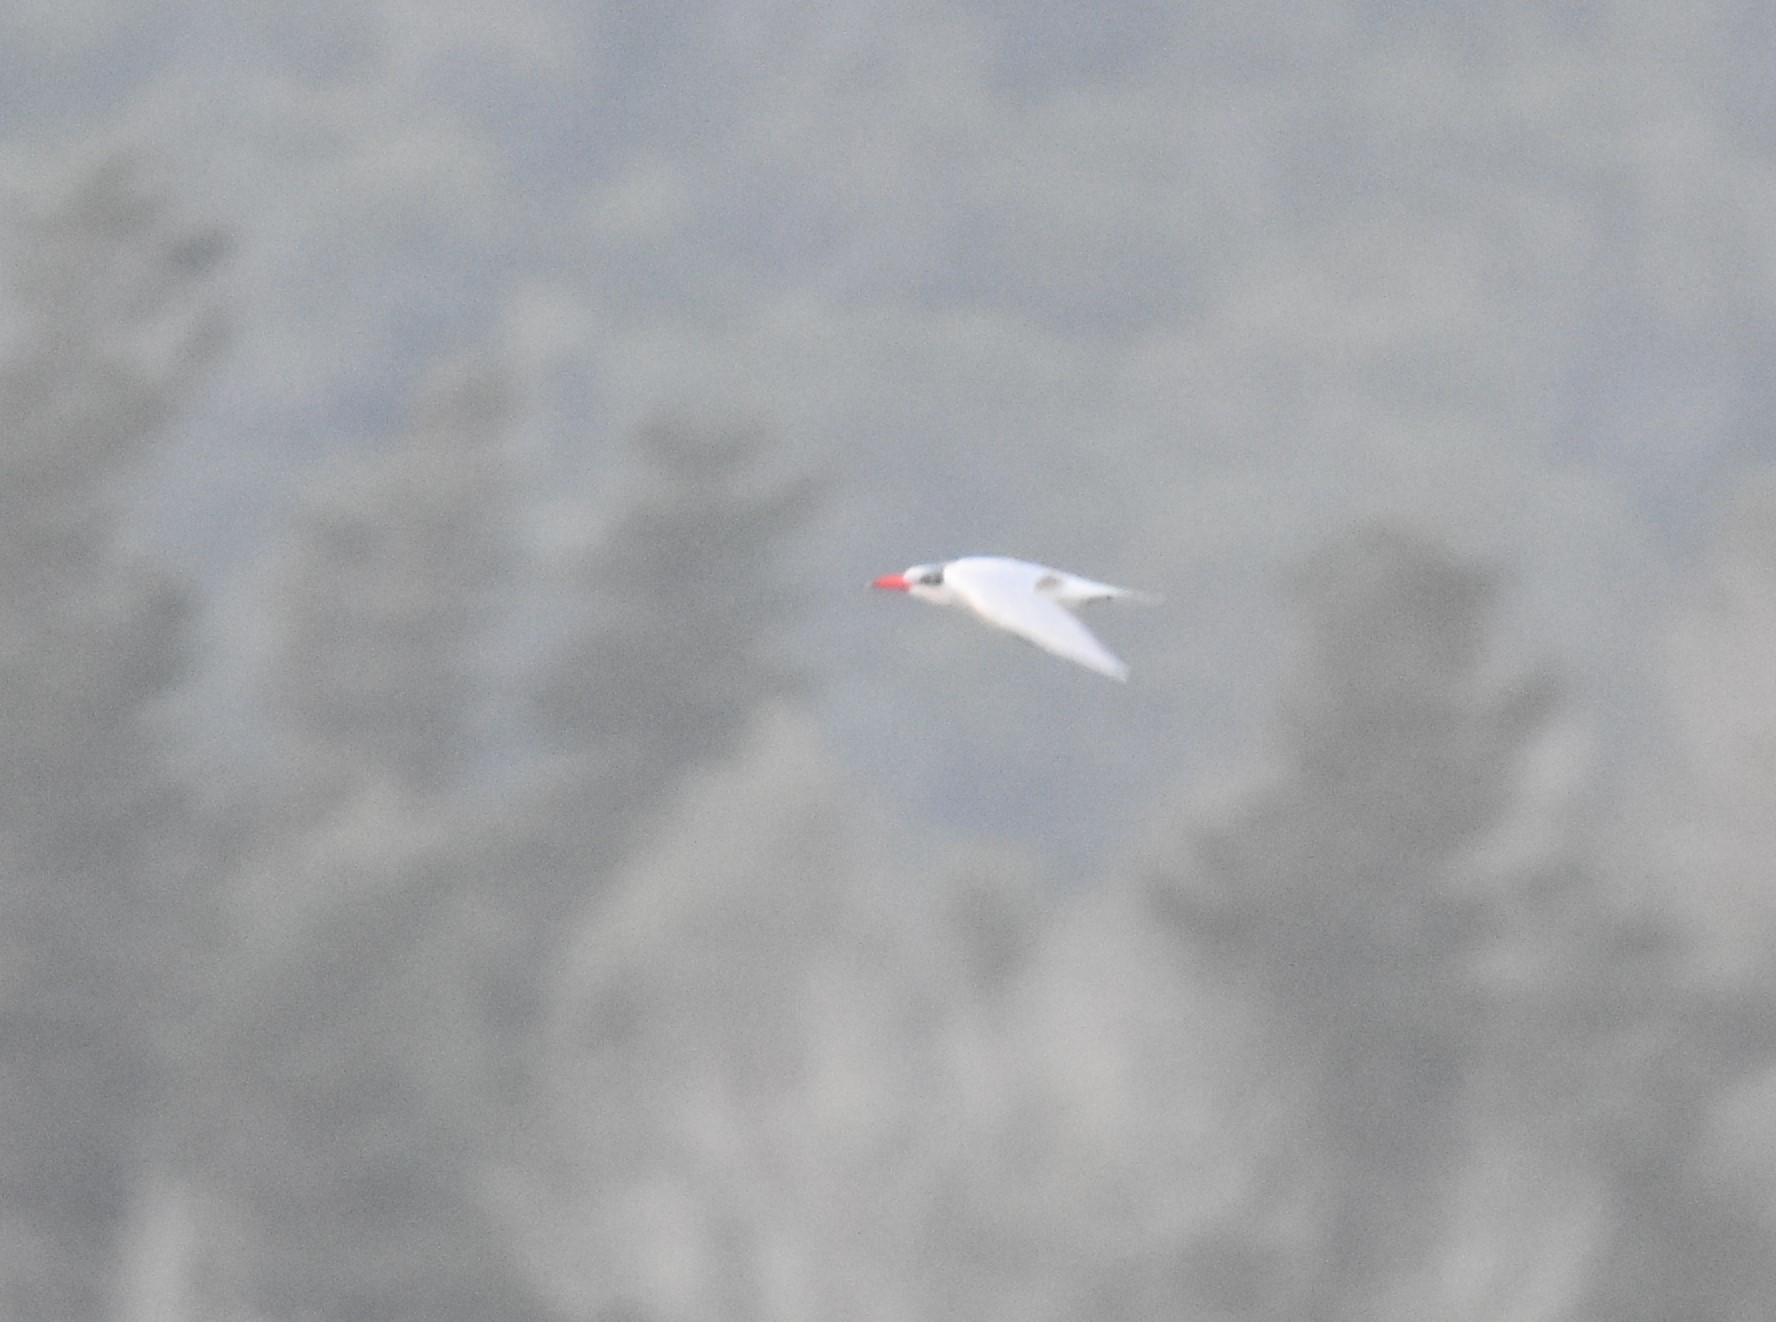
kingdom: Animalia
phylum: Chordata
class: Aves
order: Charadriiformes
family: Laridae
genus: Hydroprogne
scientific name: Hydroprogne caspia
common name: Caspian tern
